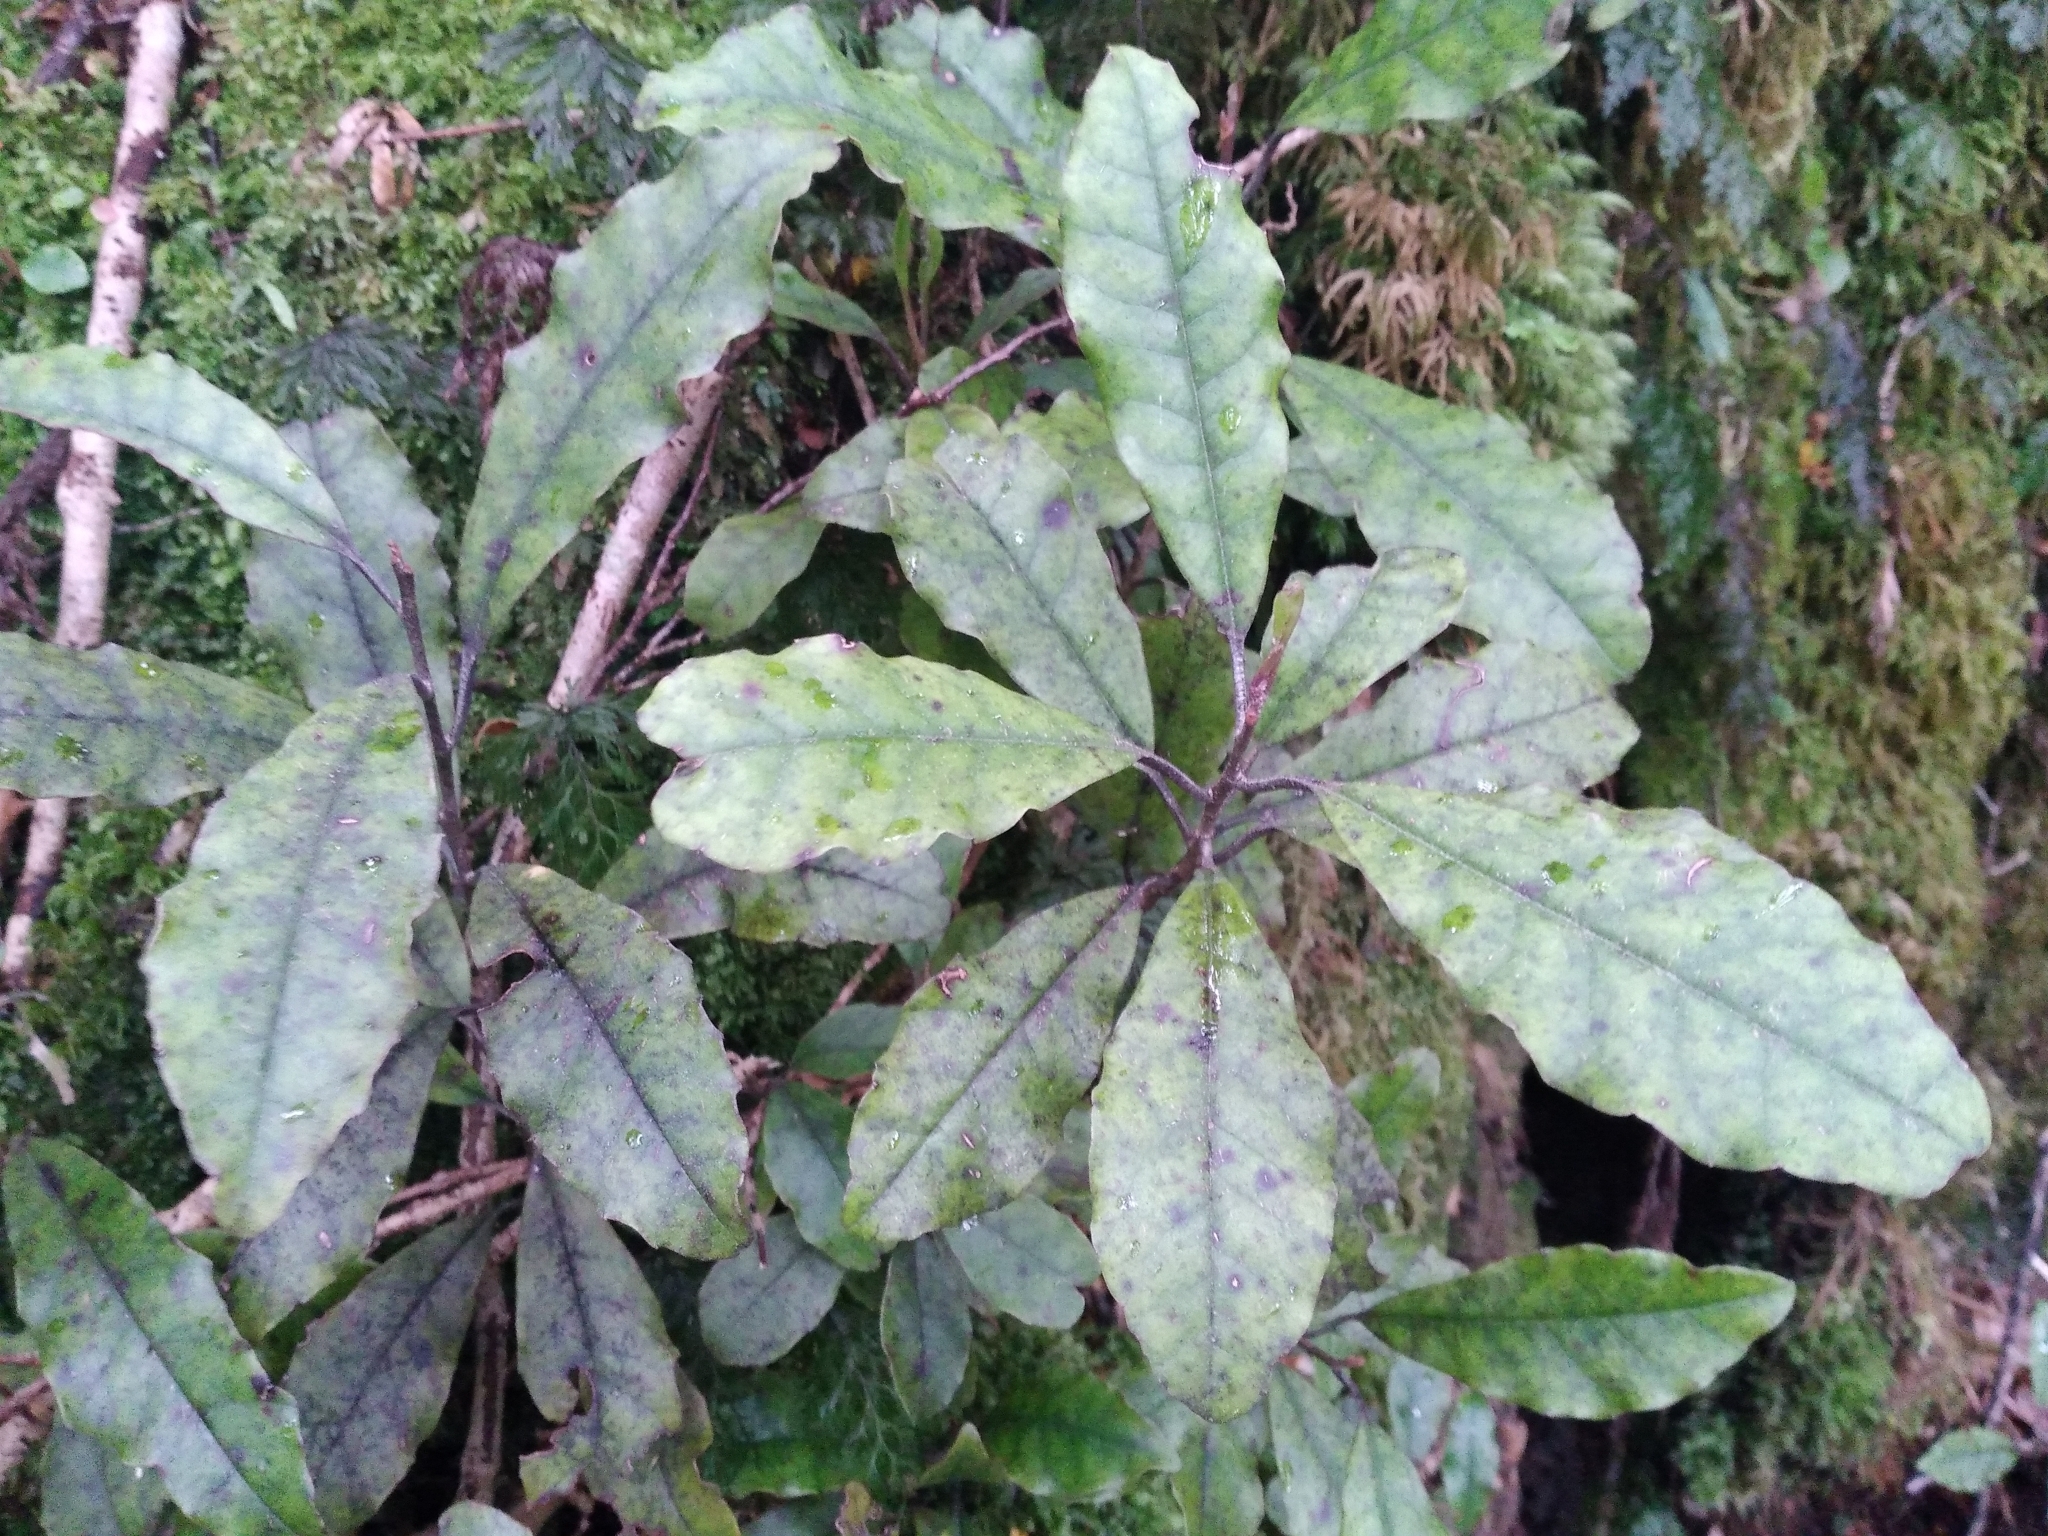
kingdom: Plantae
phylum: Tracheophyta
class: Magnoliopsida
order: Paracryphiales
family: Paracryphiaceae
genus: Quintinia
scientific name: Quintinia serrata
